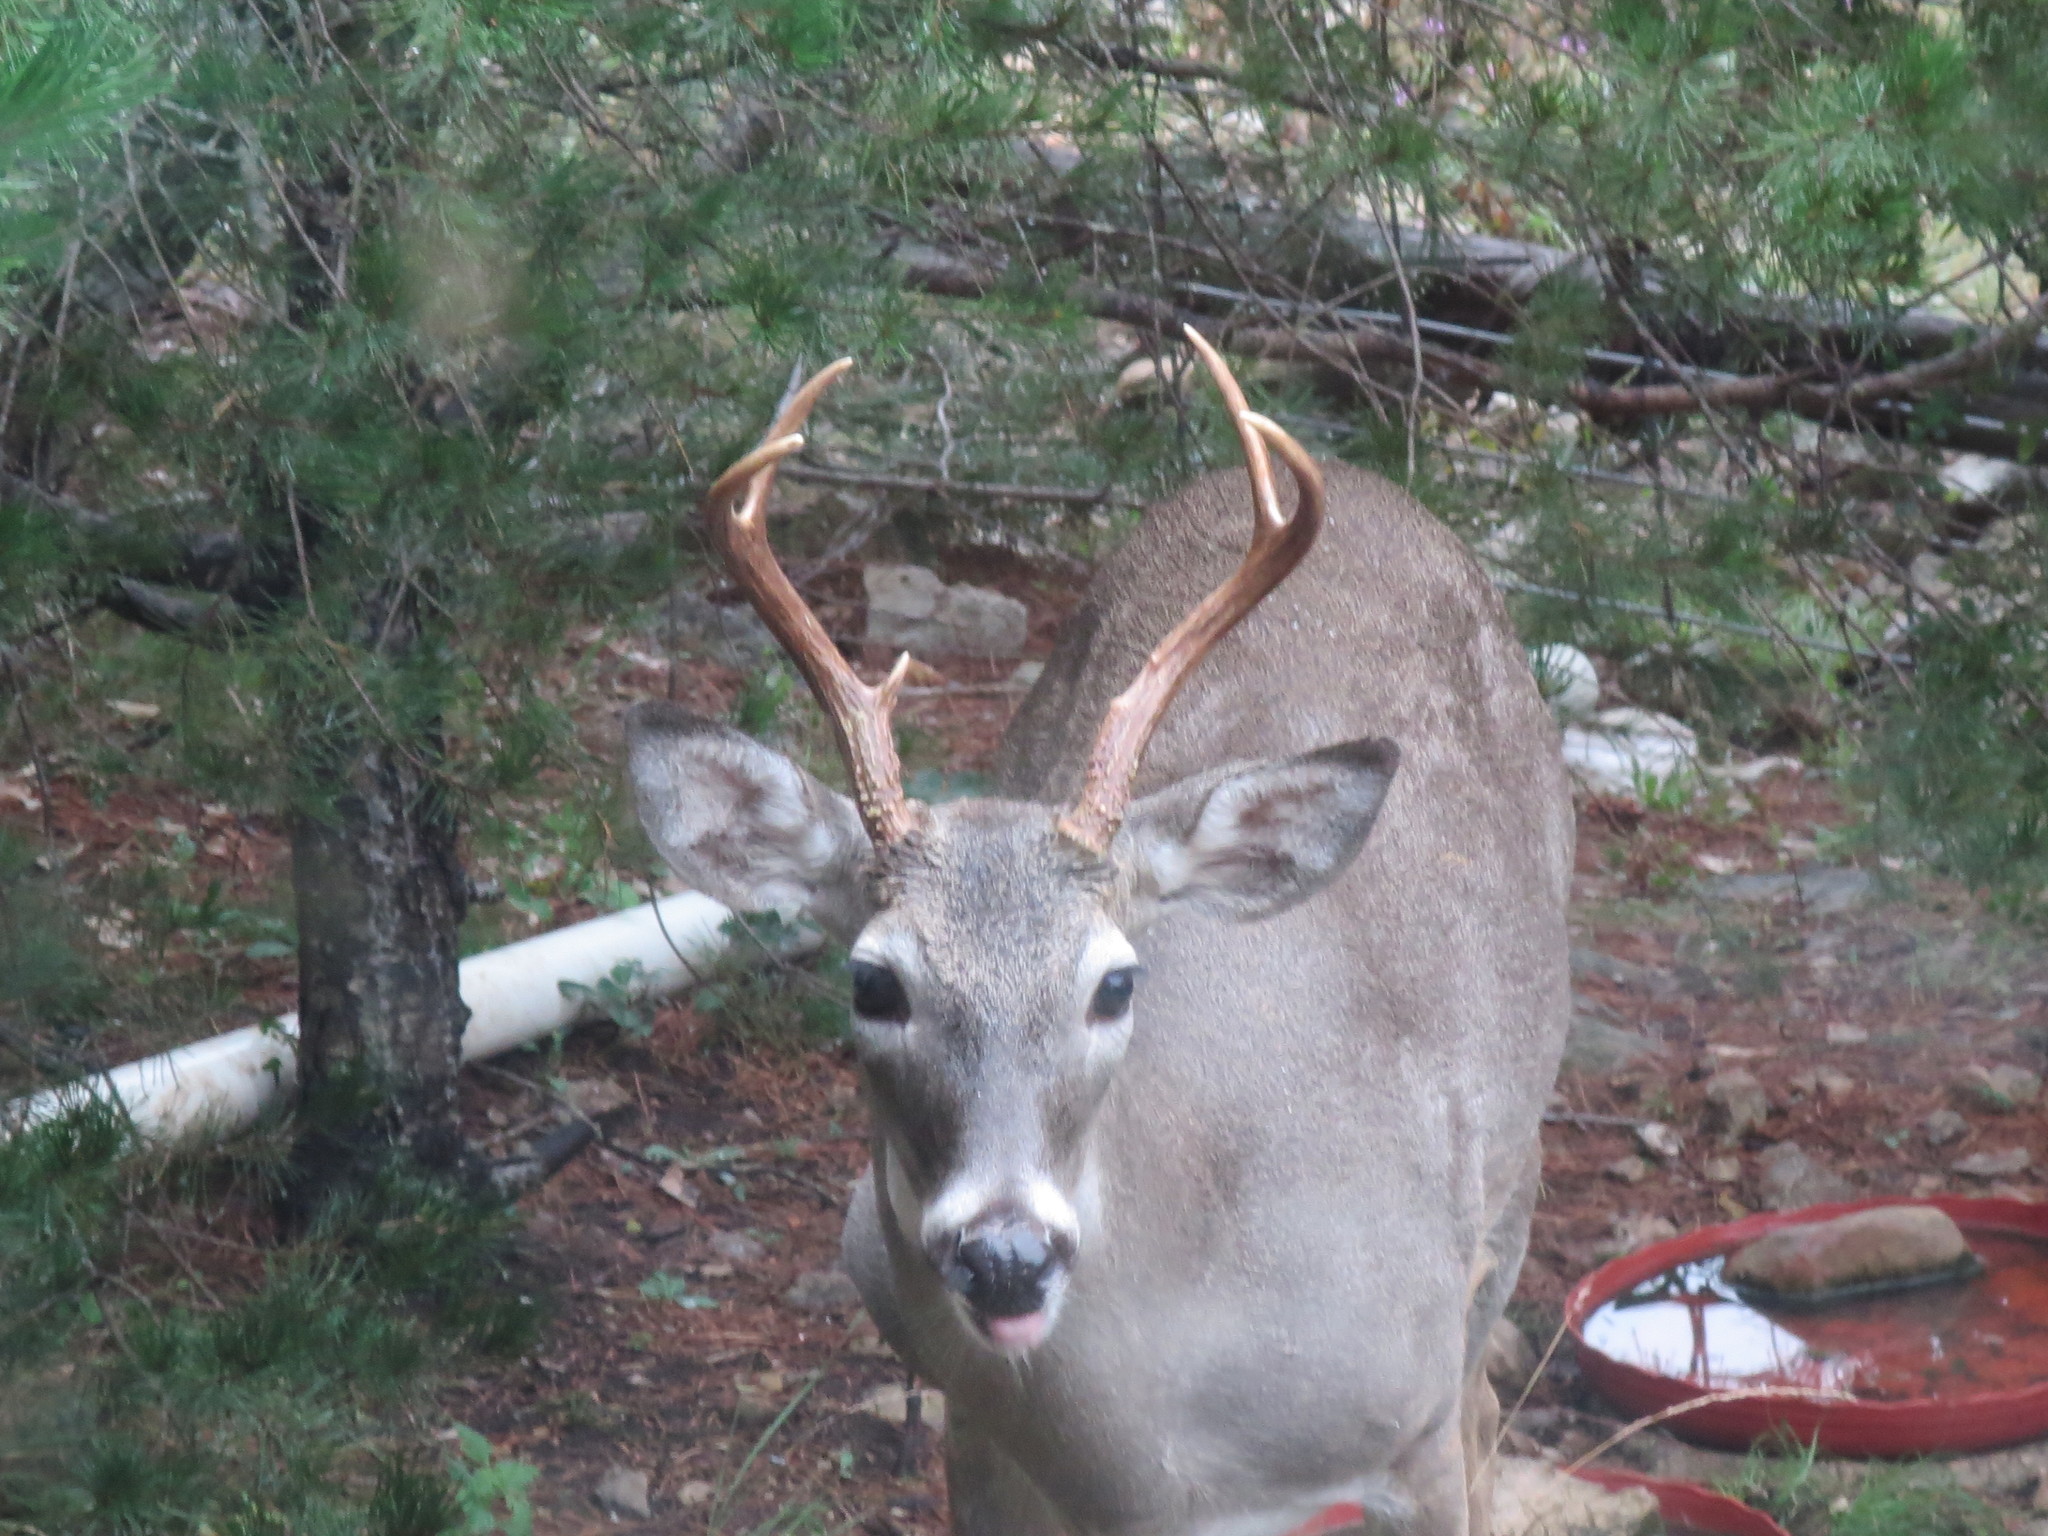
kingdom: Animalia
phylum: Chordata
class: Mammalia
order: Artiodactyla
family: Cervidae
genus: Odocoileus
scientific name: Odocoileus virginianus
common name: White-tailed deer
